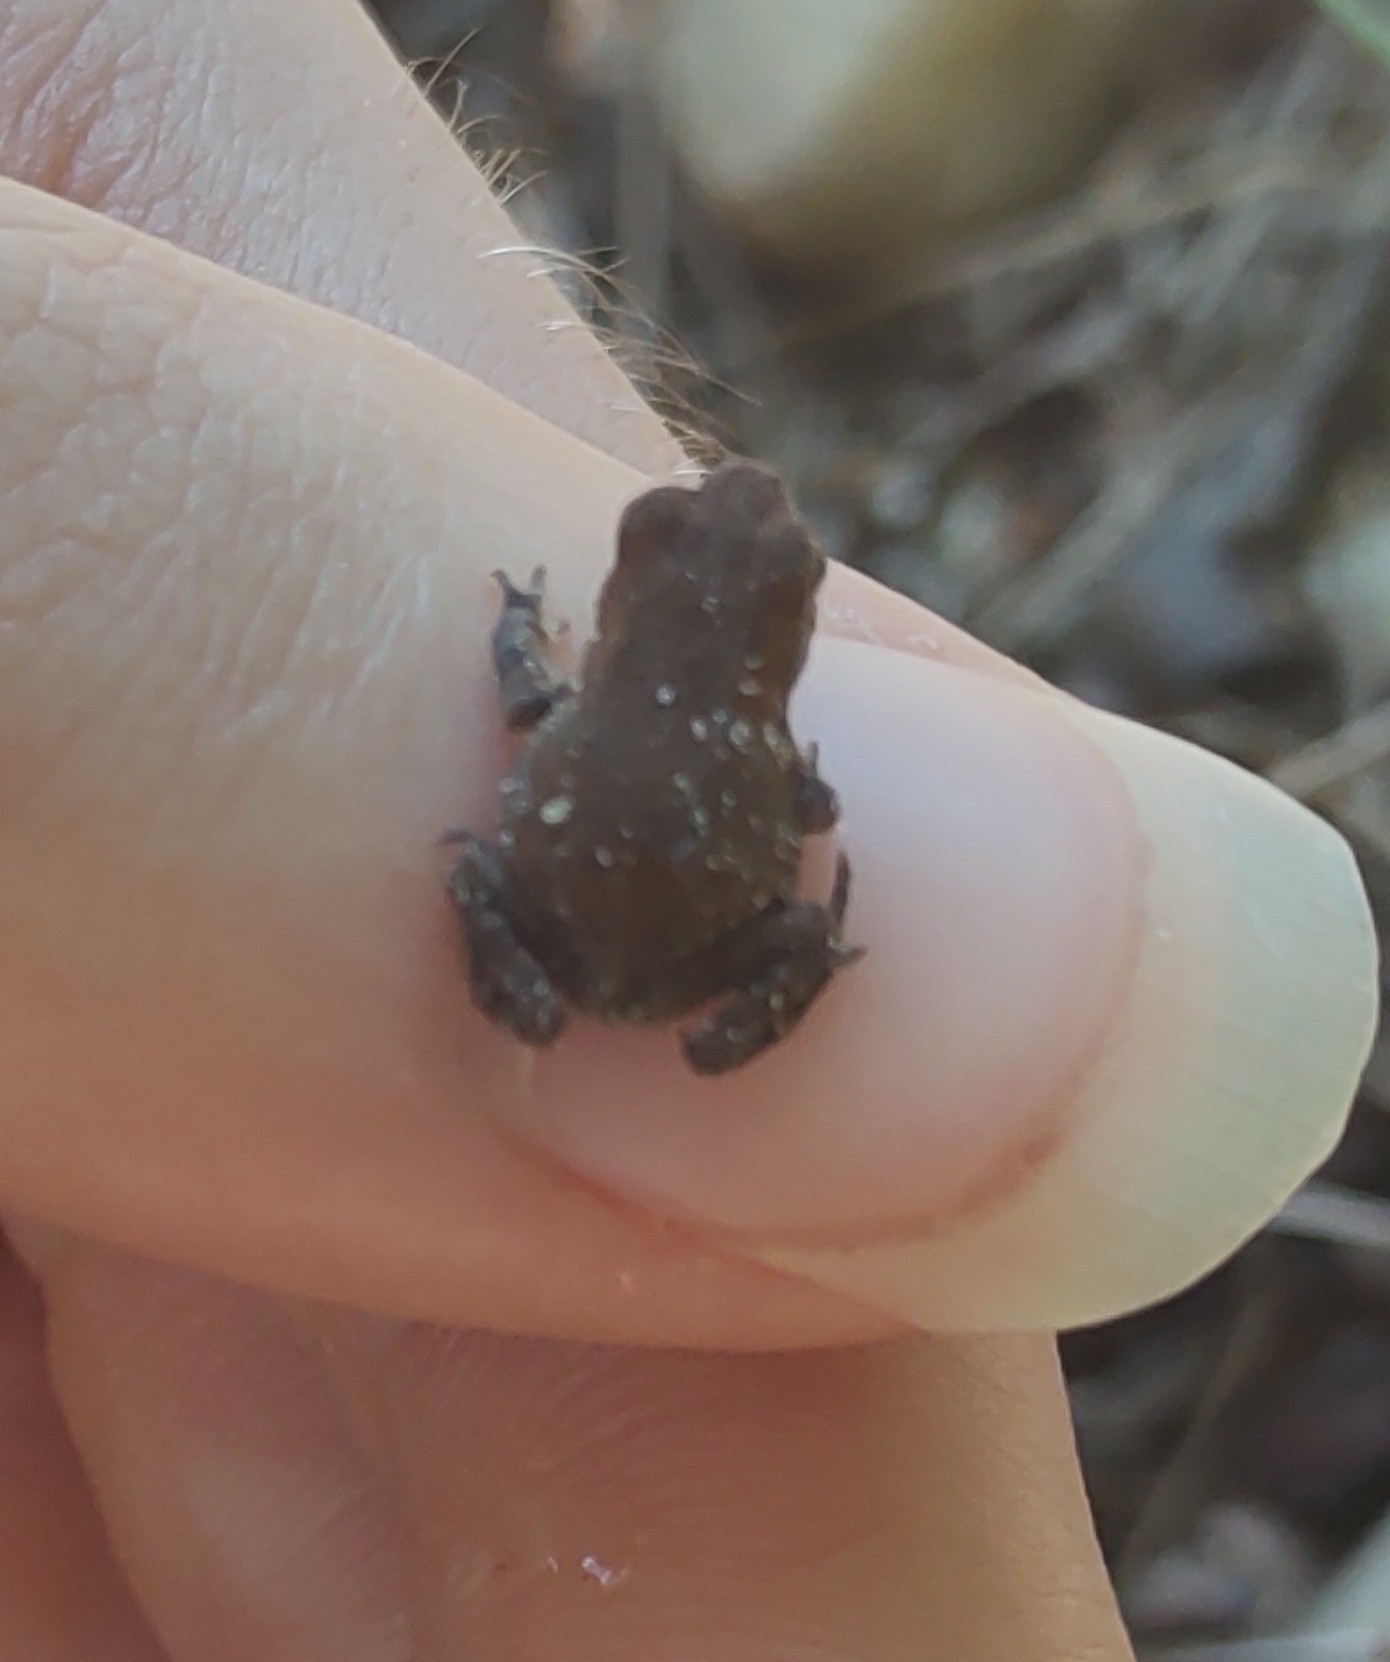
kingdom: Animalia
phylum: Chordata
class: Amphibia
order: Anura
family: Bufonidae
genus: Anaxyrus
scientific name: Anaxyrus
